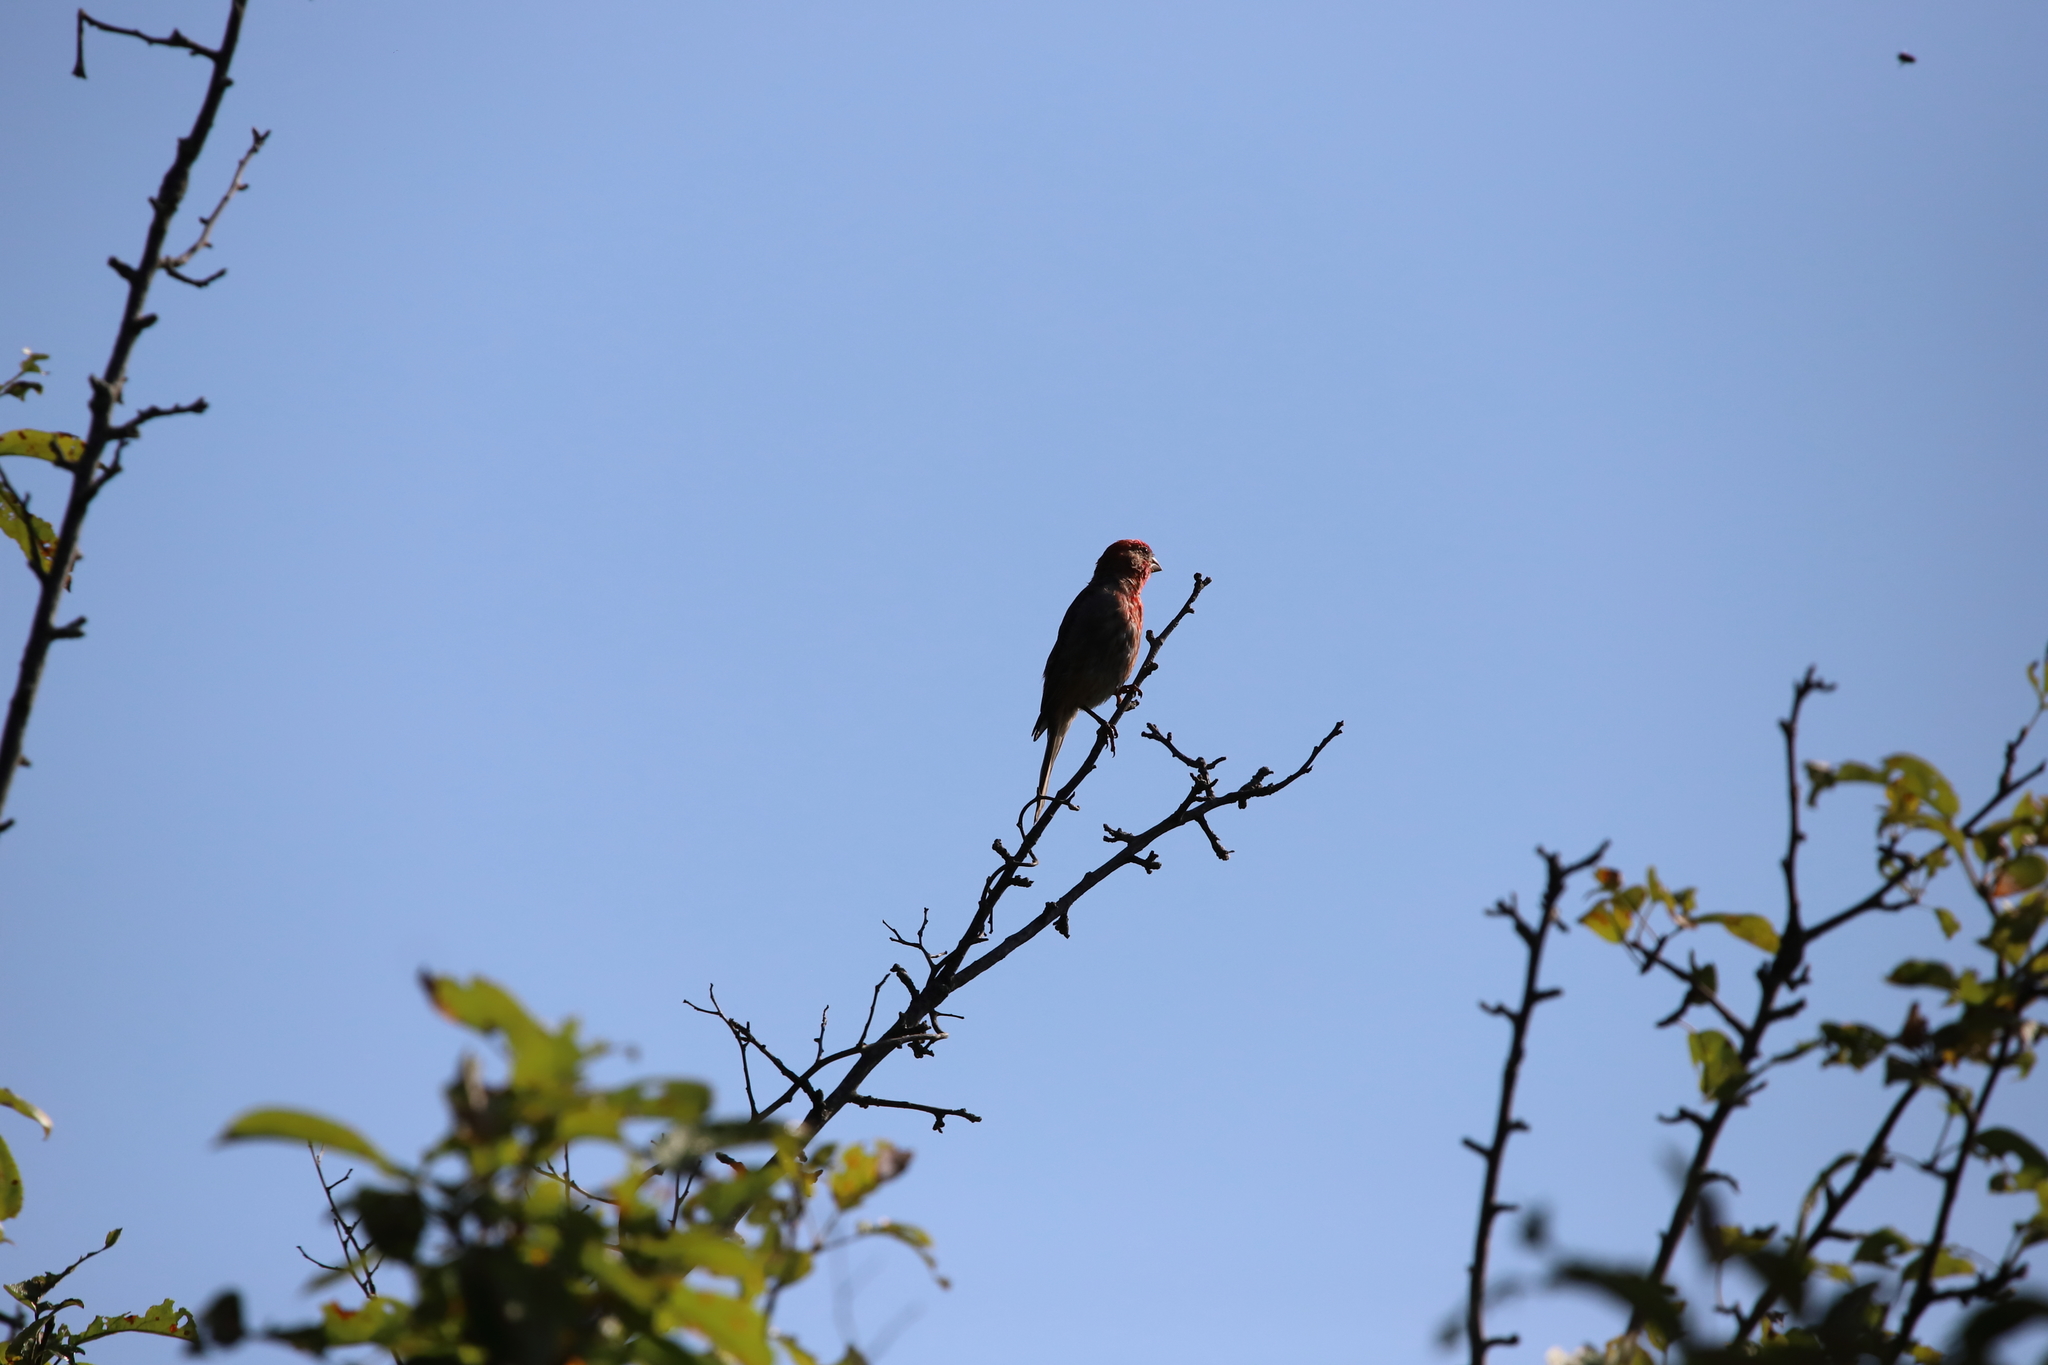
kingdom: Animalia
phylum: Chordata
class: Aves
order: Passeriformes
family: Fringillidae
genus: Haemorhous
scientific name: Haemorhous mexicanus
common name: House finch
